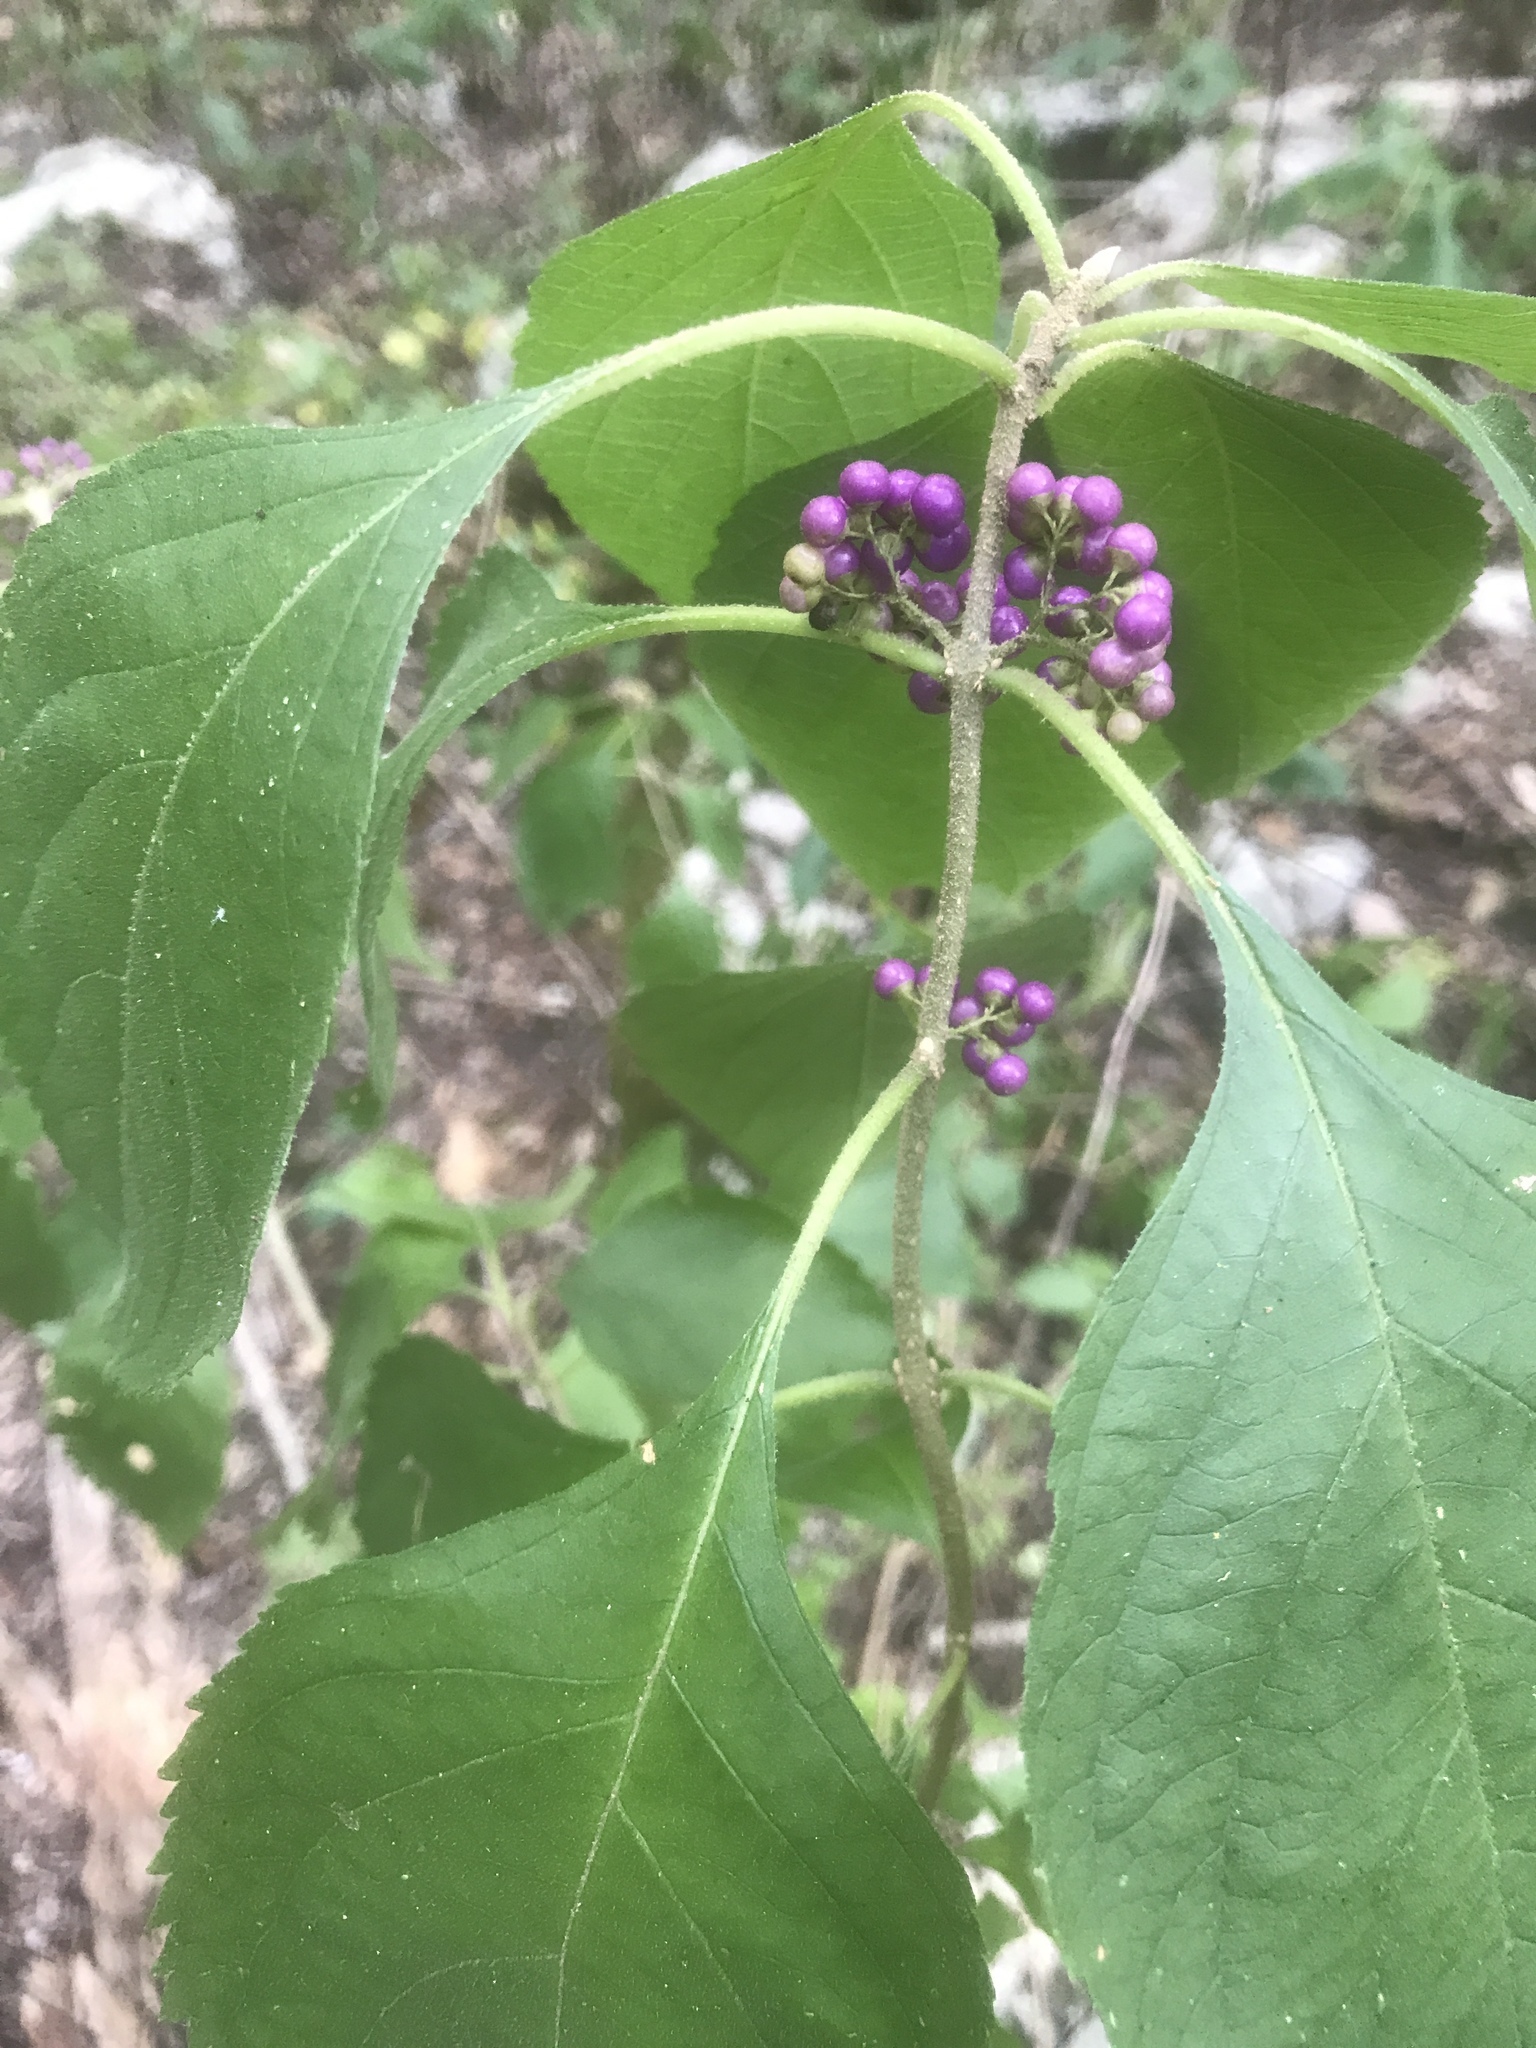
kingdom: Plantae
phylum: Tracheophyta
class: Magnoliopsida
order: Lamiales
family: Lamiaceae
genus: Callicarpa
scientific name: Callicarpa americana
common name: American beautyberry
